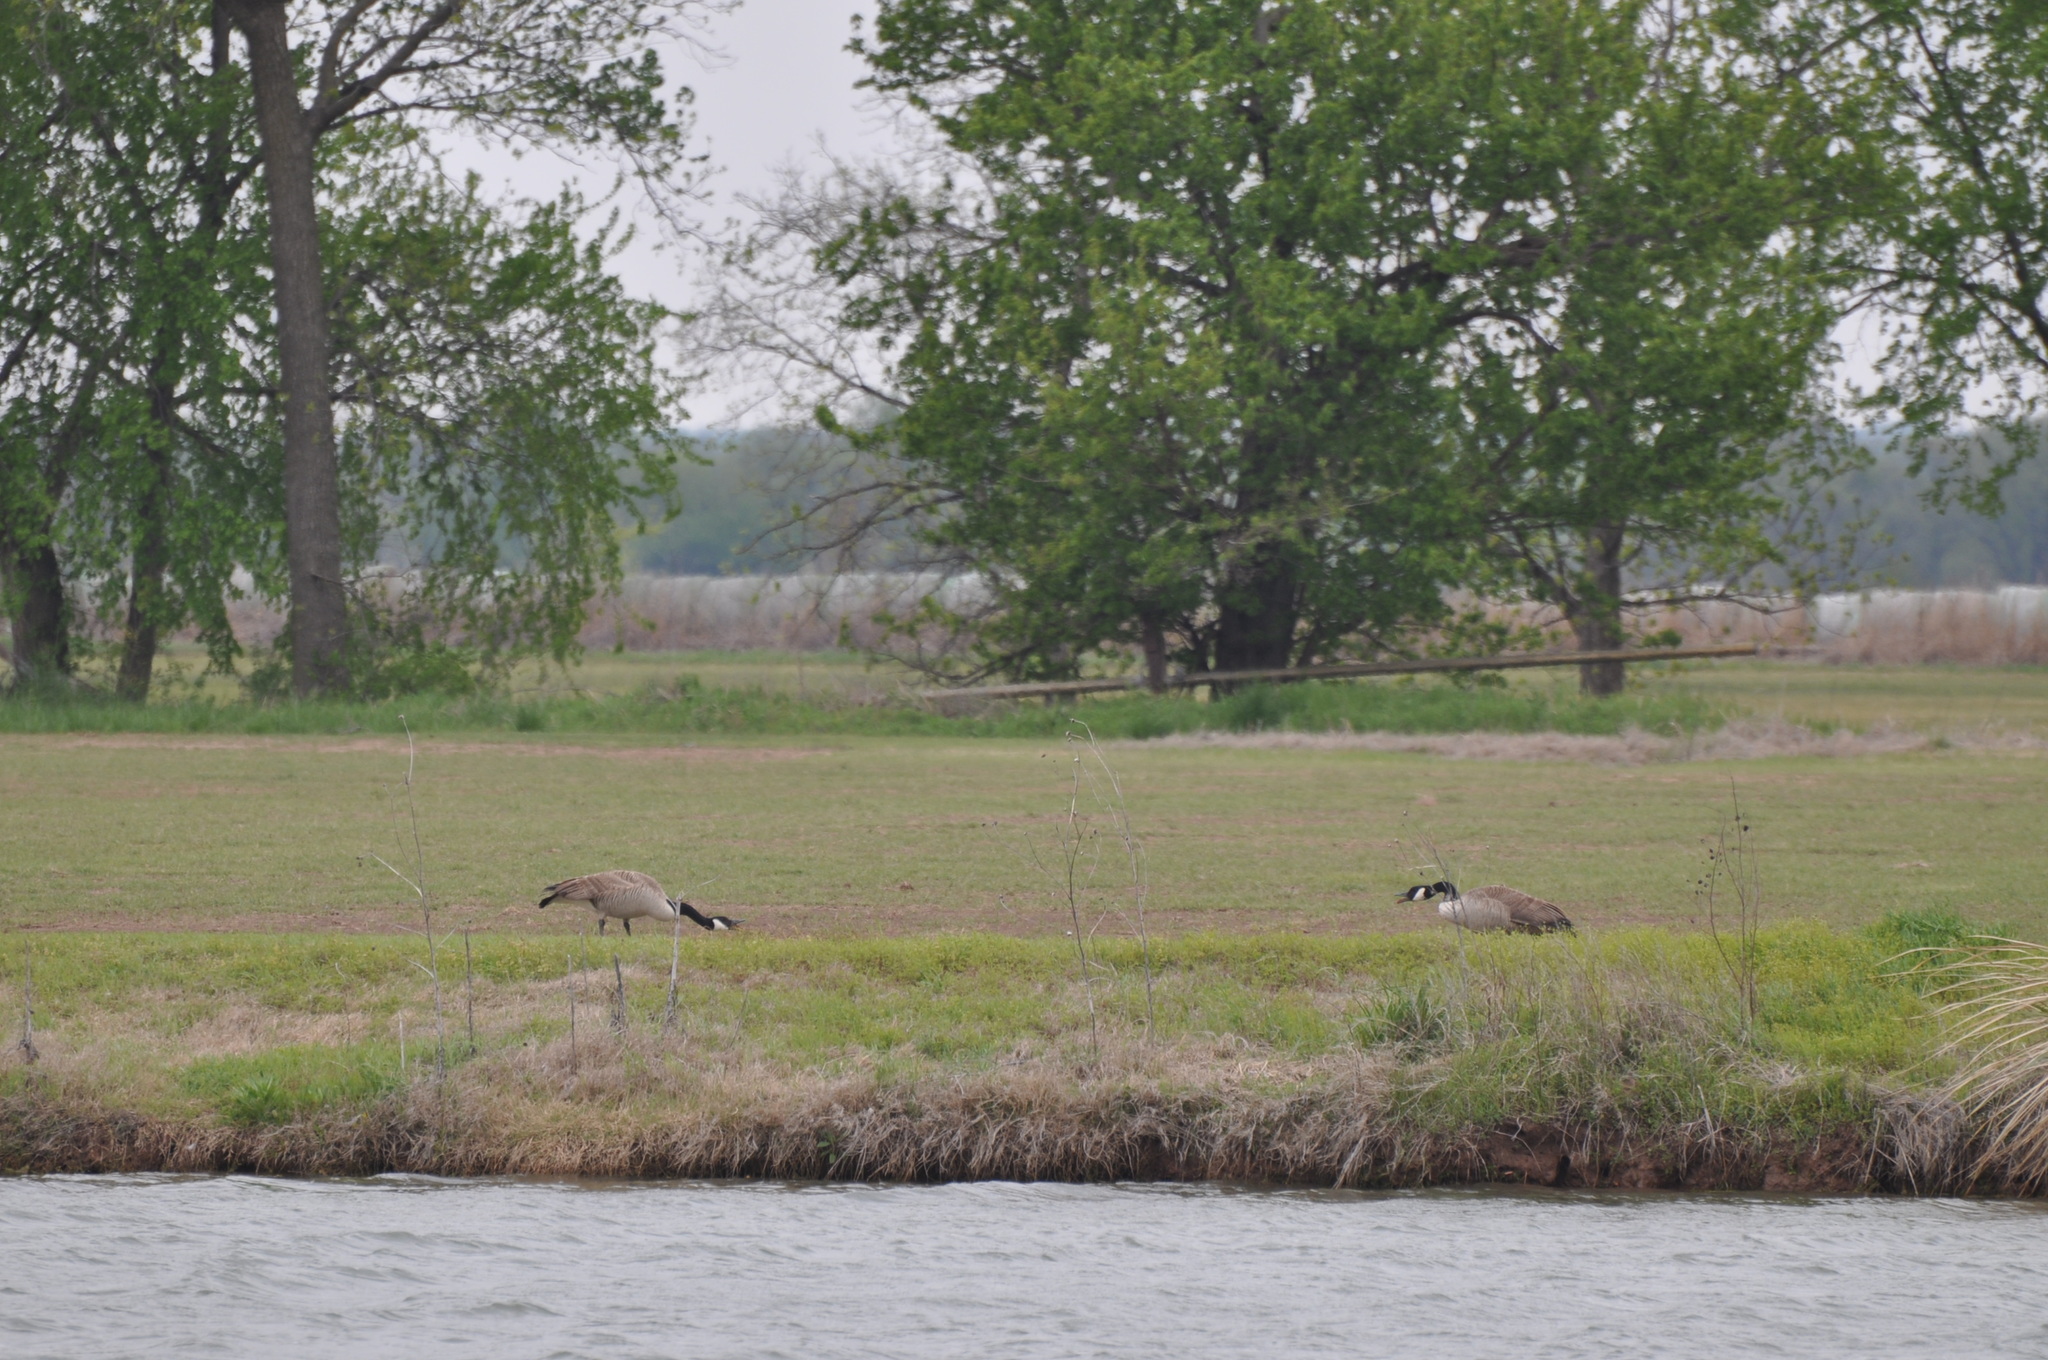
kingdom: Animalia
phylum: Chordata
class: Aves
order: Anseriformes
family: Anatidae
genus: Branta
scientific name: Branta canadensis
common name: Canada goose
